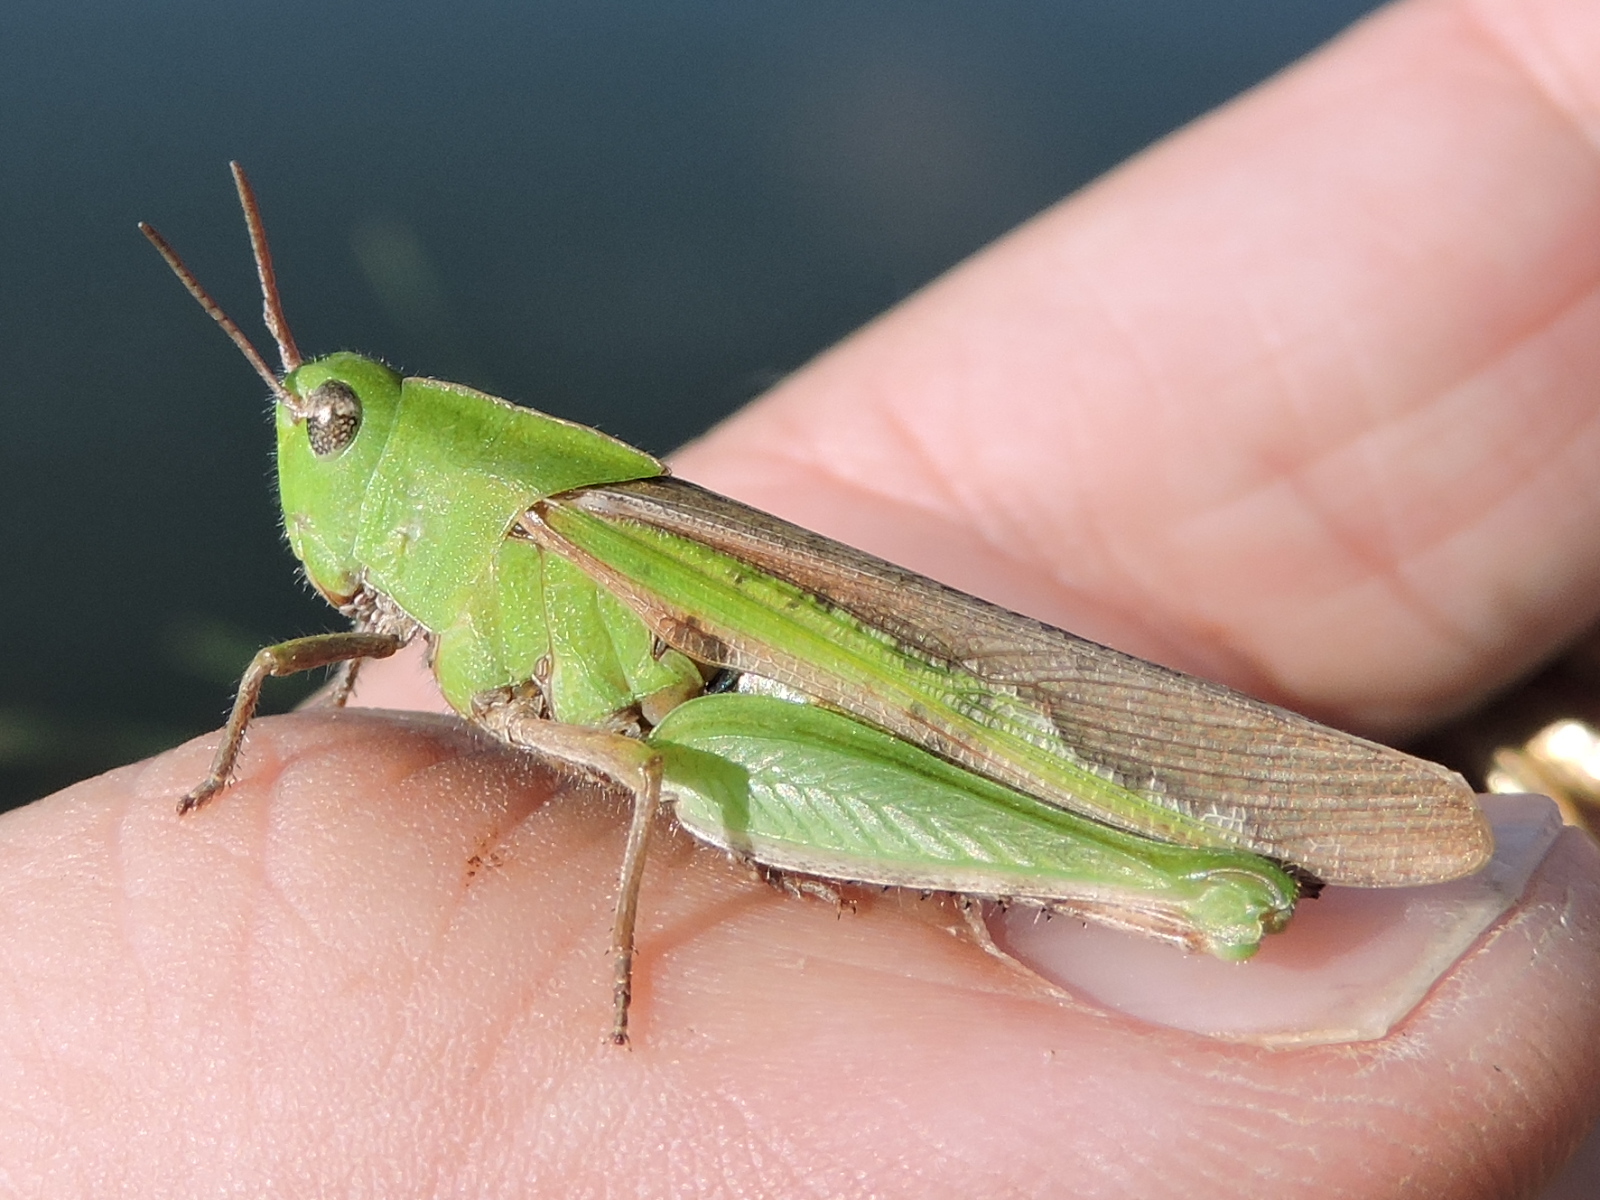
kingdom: Animalia
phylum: Arthropoda
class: Insecta
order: Orthoptera
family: Acrididae
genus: Chortophaga
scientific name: Chortophaga viridifasciata
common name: Green-striped grasshopper
